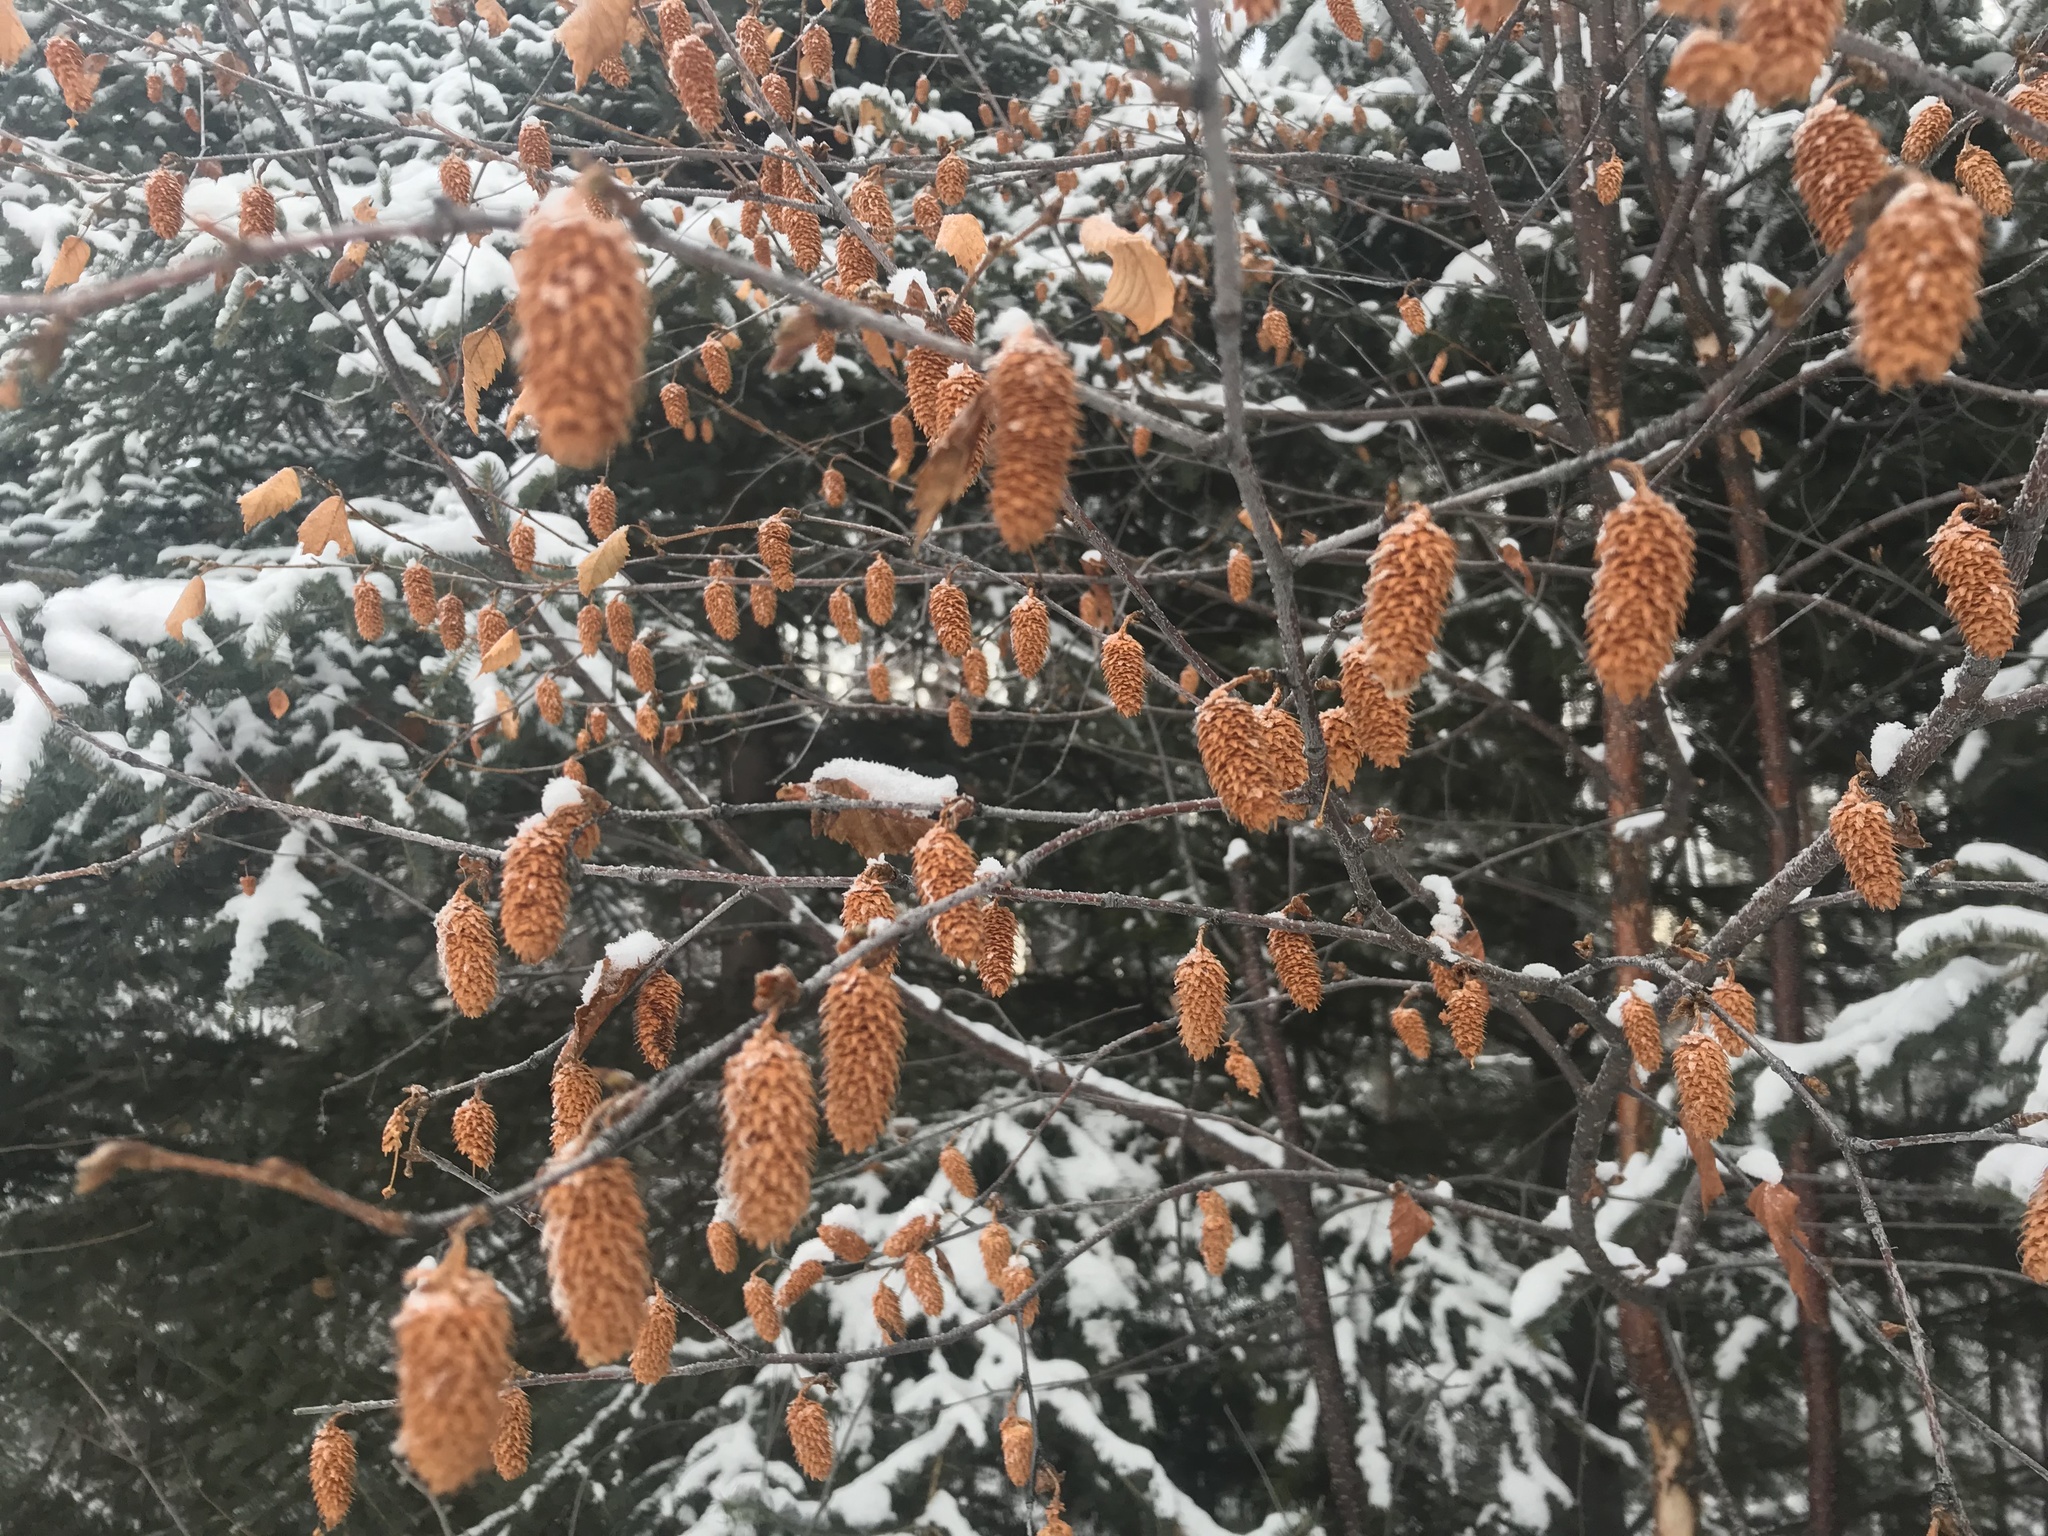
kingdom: Plantae
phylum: Tracheophyta
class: Magnoliopsida
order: Fagales
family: Betulaceae
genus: Betula
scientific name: Betula occidentalis
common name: River birch
